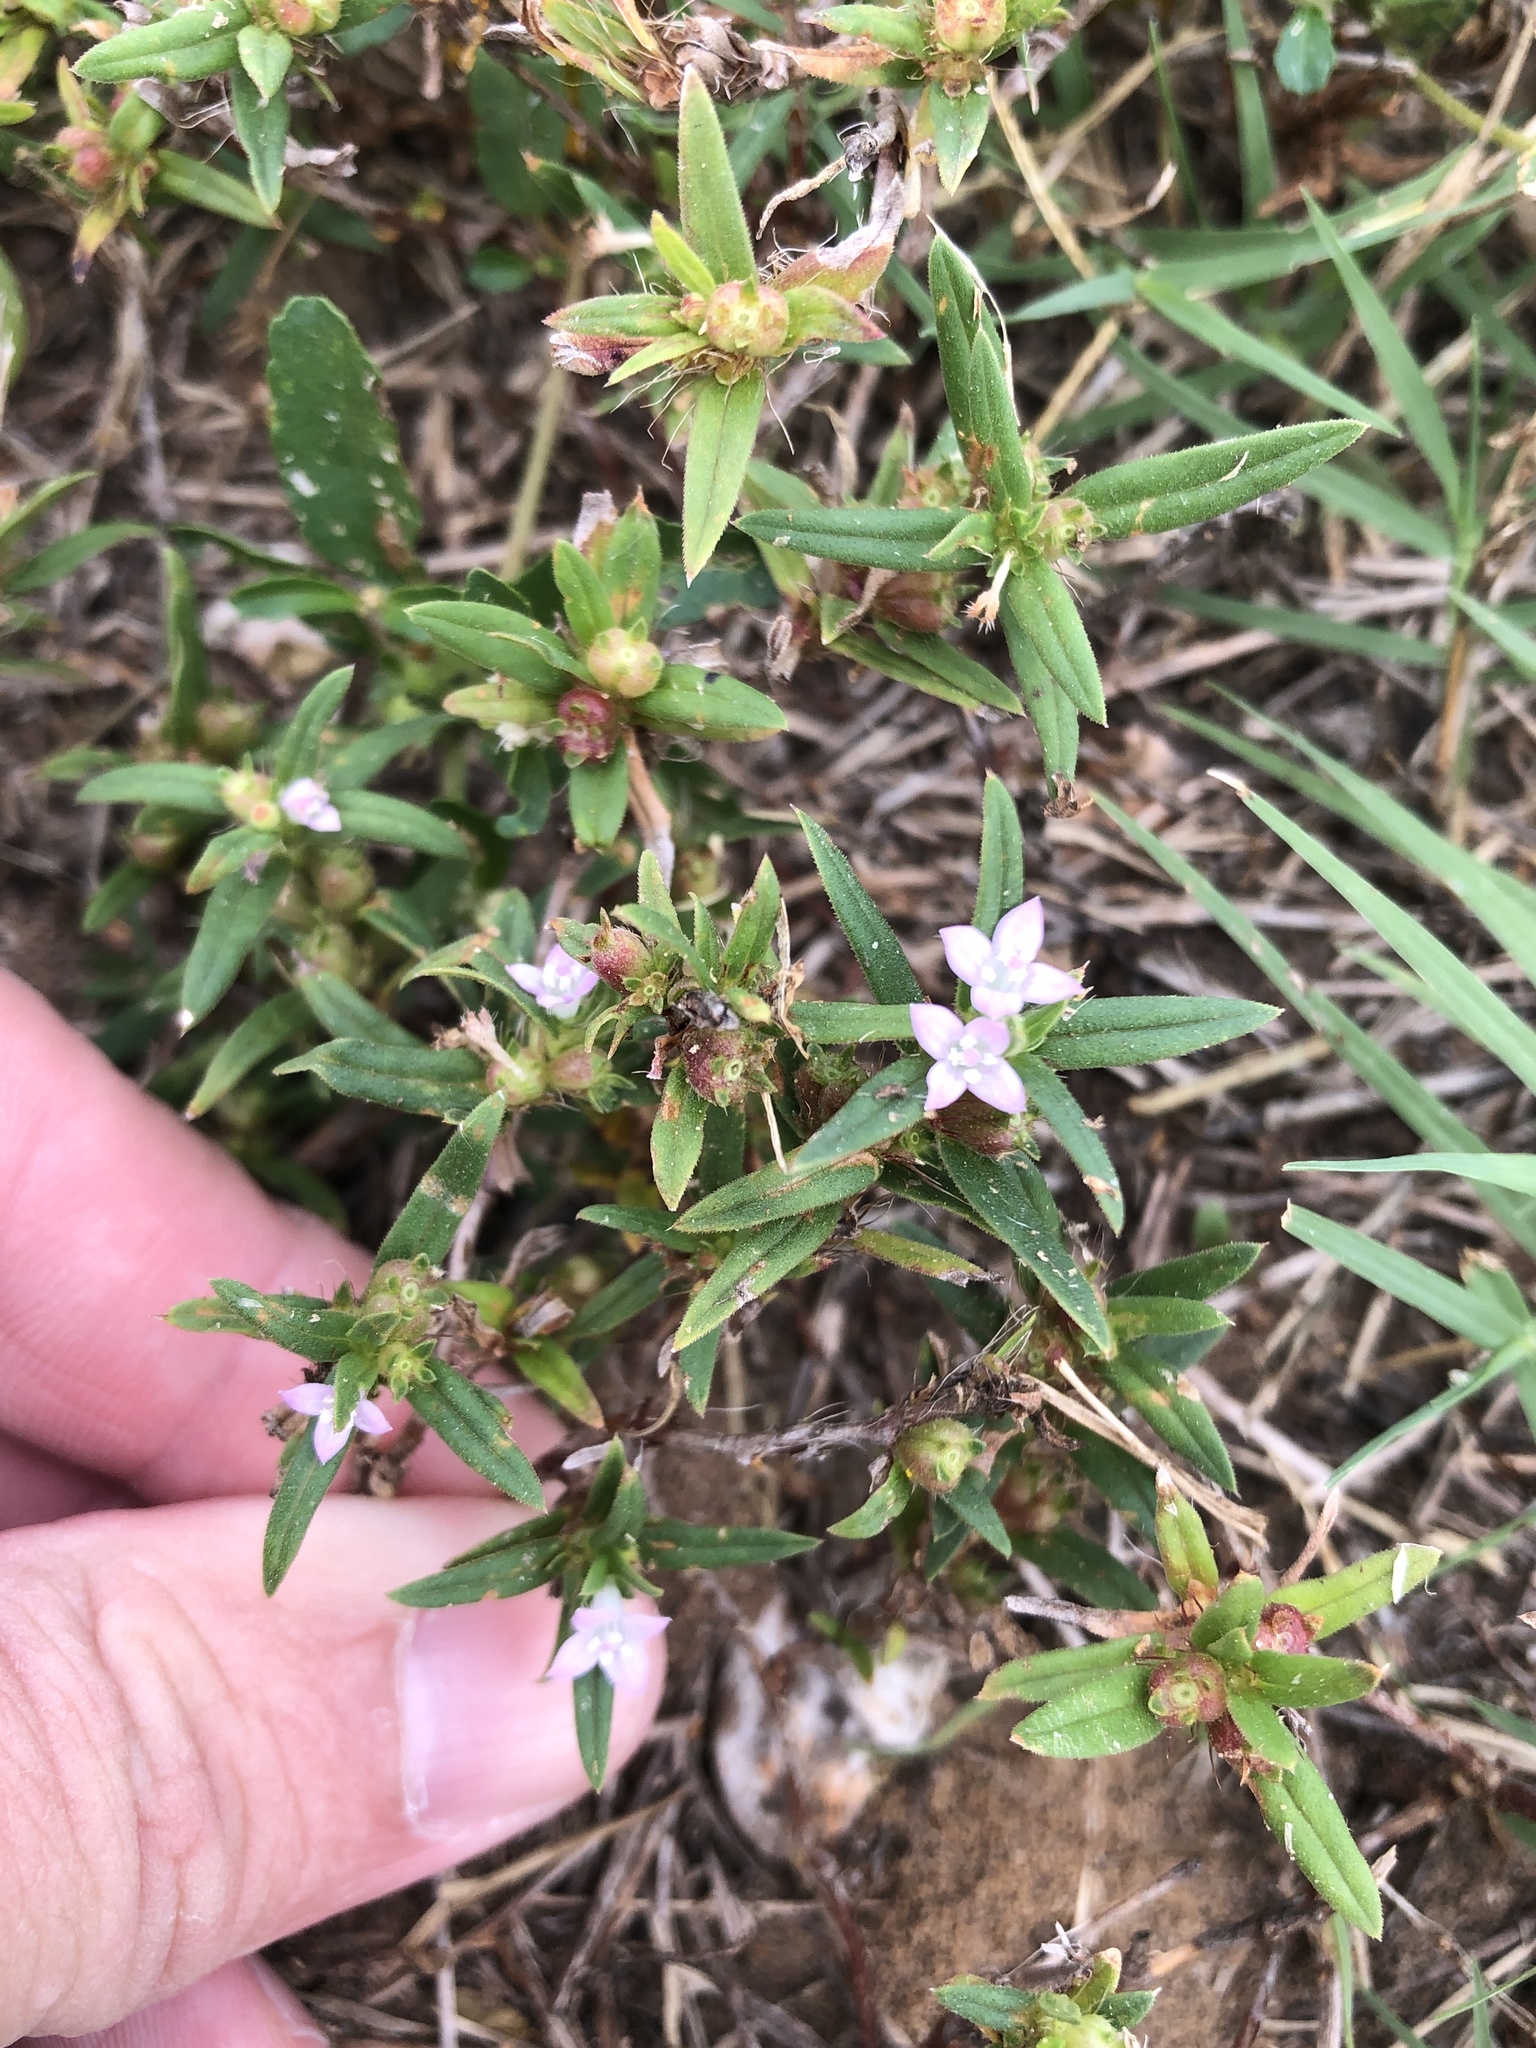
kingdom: Plantae
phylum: Tracheophyta
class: Magnoliopsida
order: Gentianales
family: Rubiaceae
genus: Hexasepalum
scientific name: Hexasepalum teres
